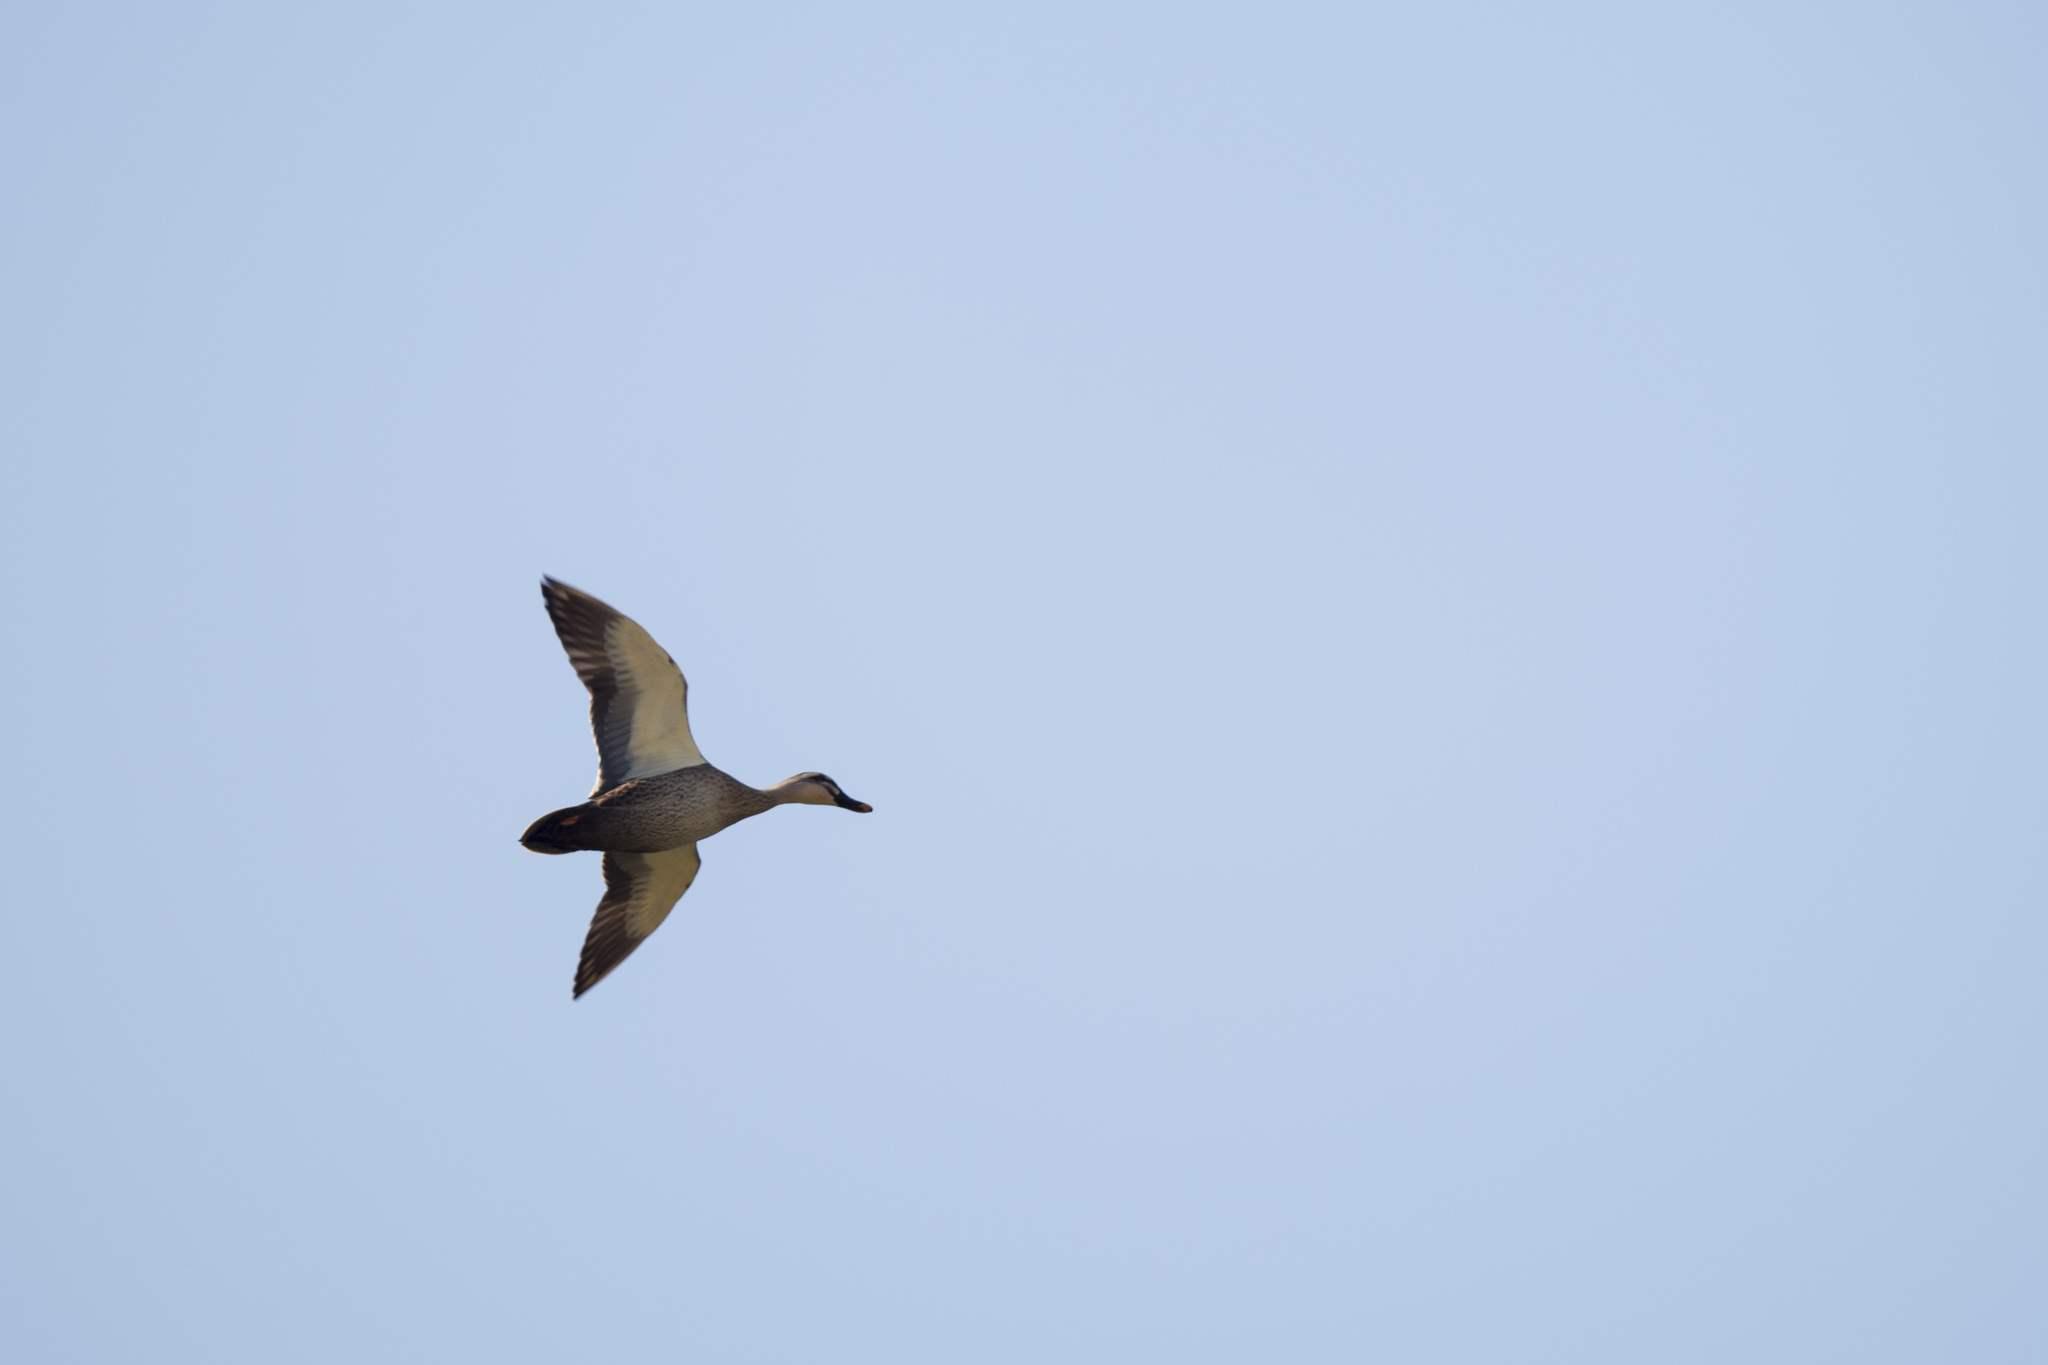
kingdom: Animalia
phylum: Chordata
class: Aves
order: Anseriformes
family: Anatidae
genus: Anas
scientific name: Anas zonorhyncha
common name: Eastern spot-billed duck
